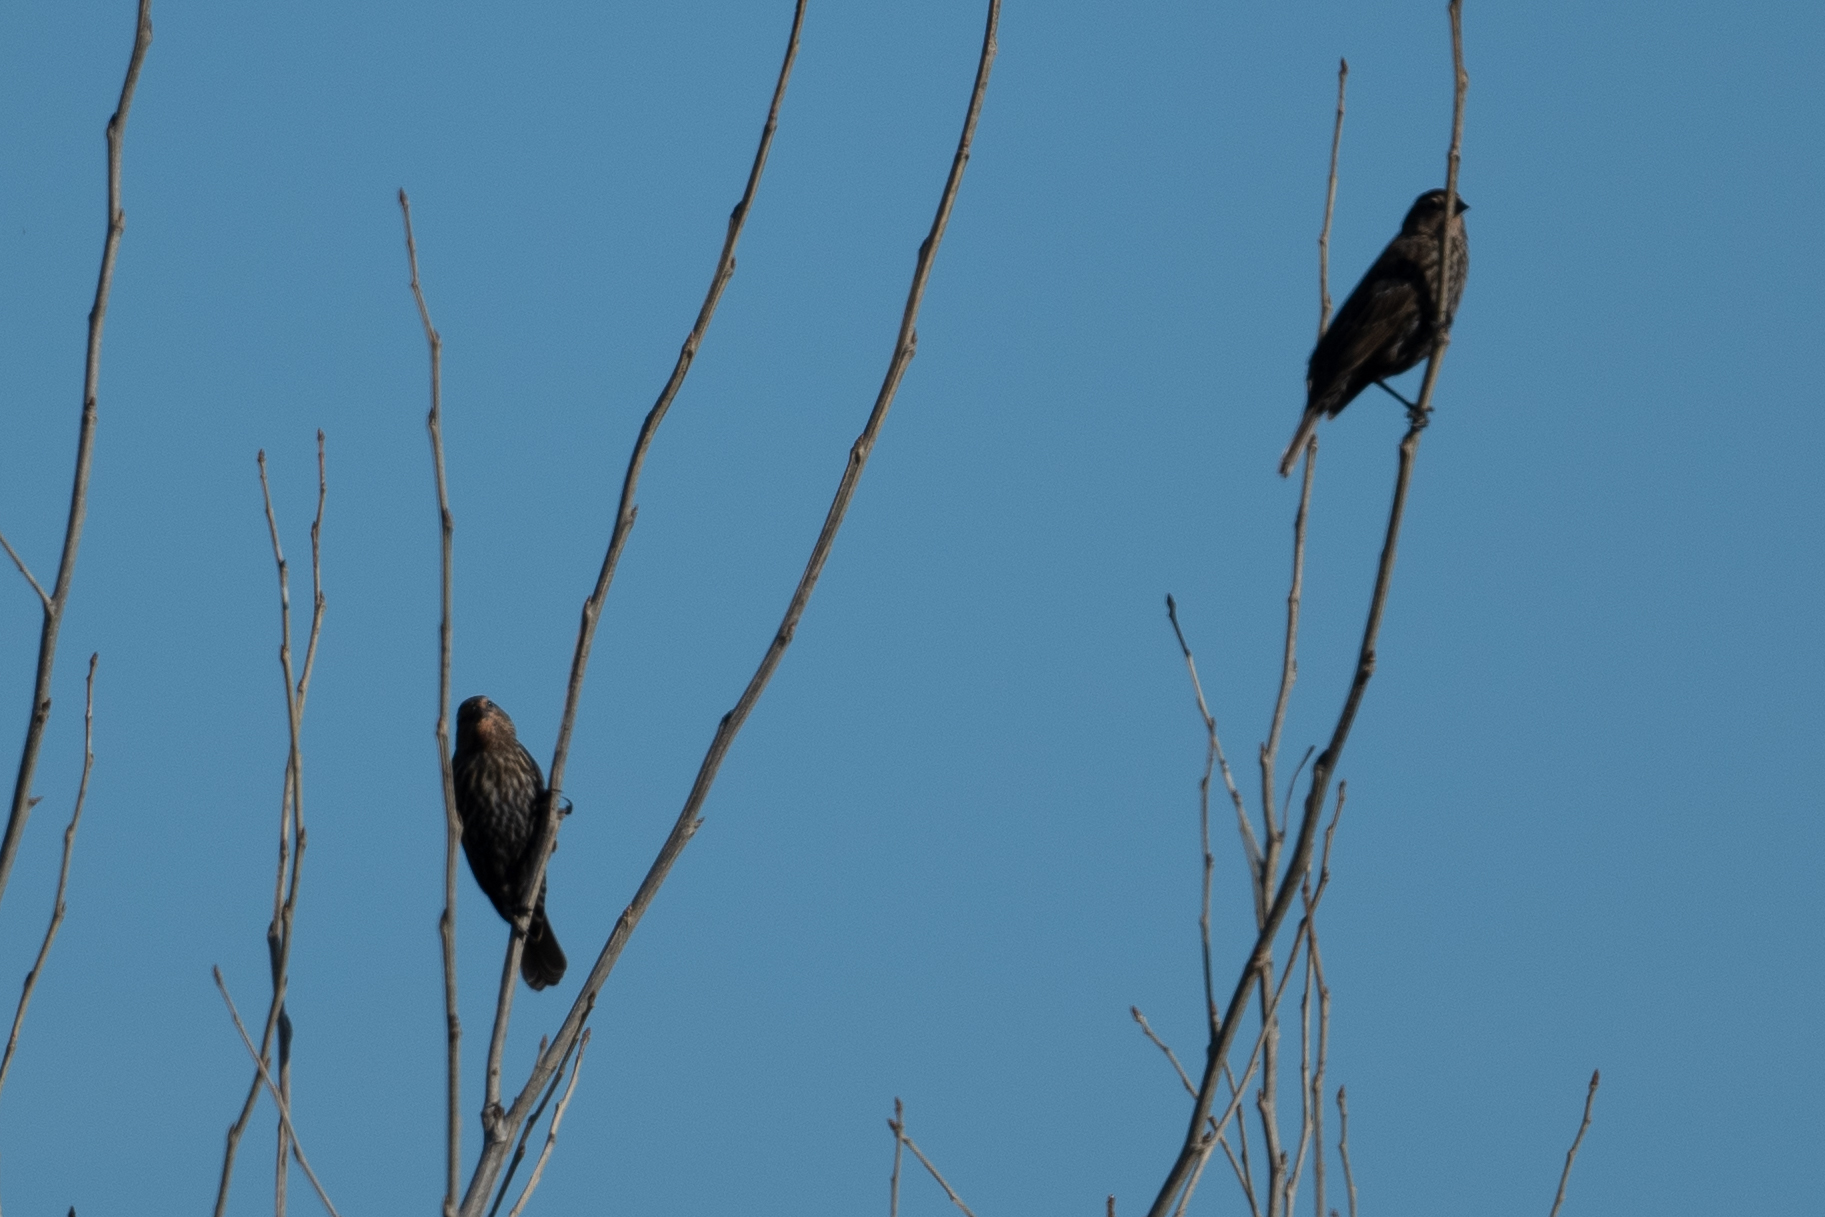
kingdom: Animalia
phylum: Chordata
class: Aves
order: Passeriformes
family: Icteridae
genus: Agelaius
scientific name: Agelaius phoeniceus
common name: Red-winged blackbird
